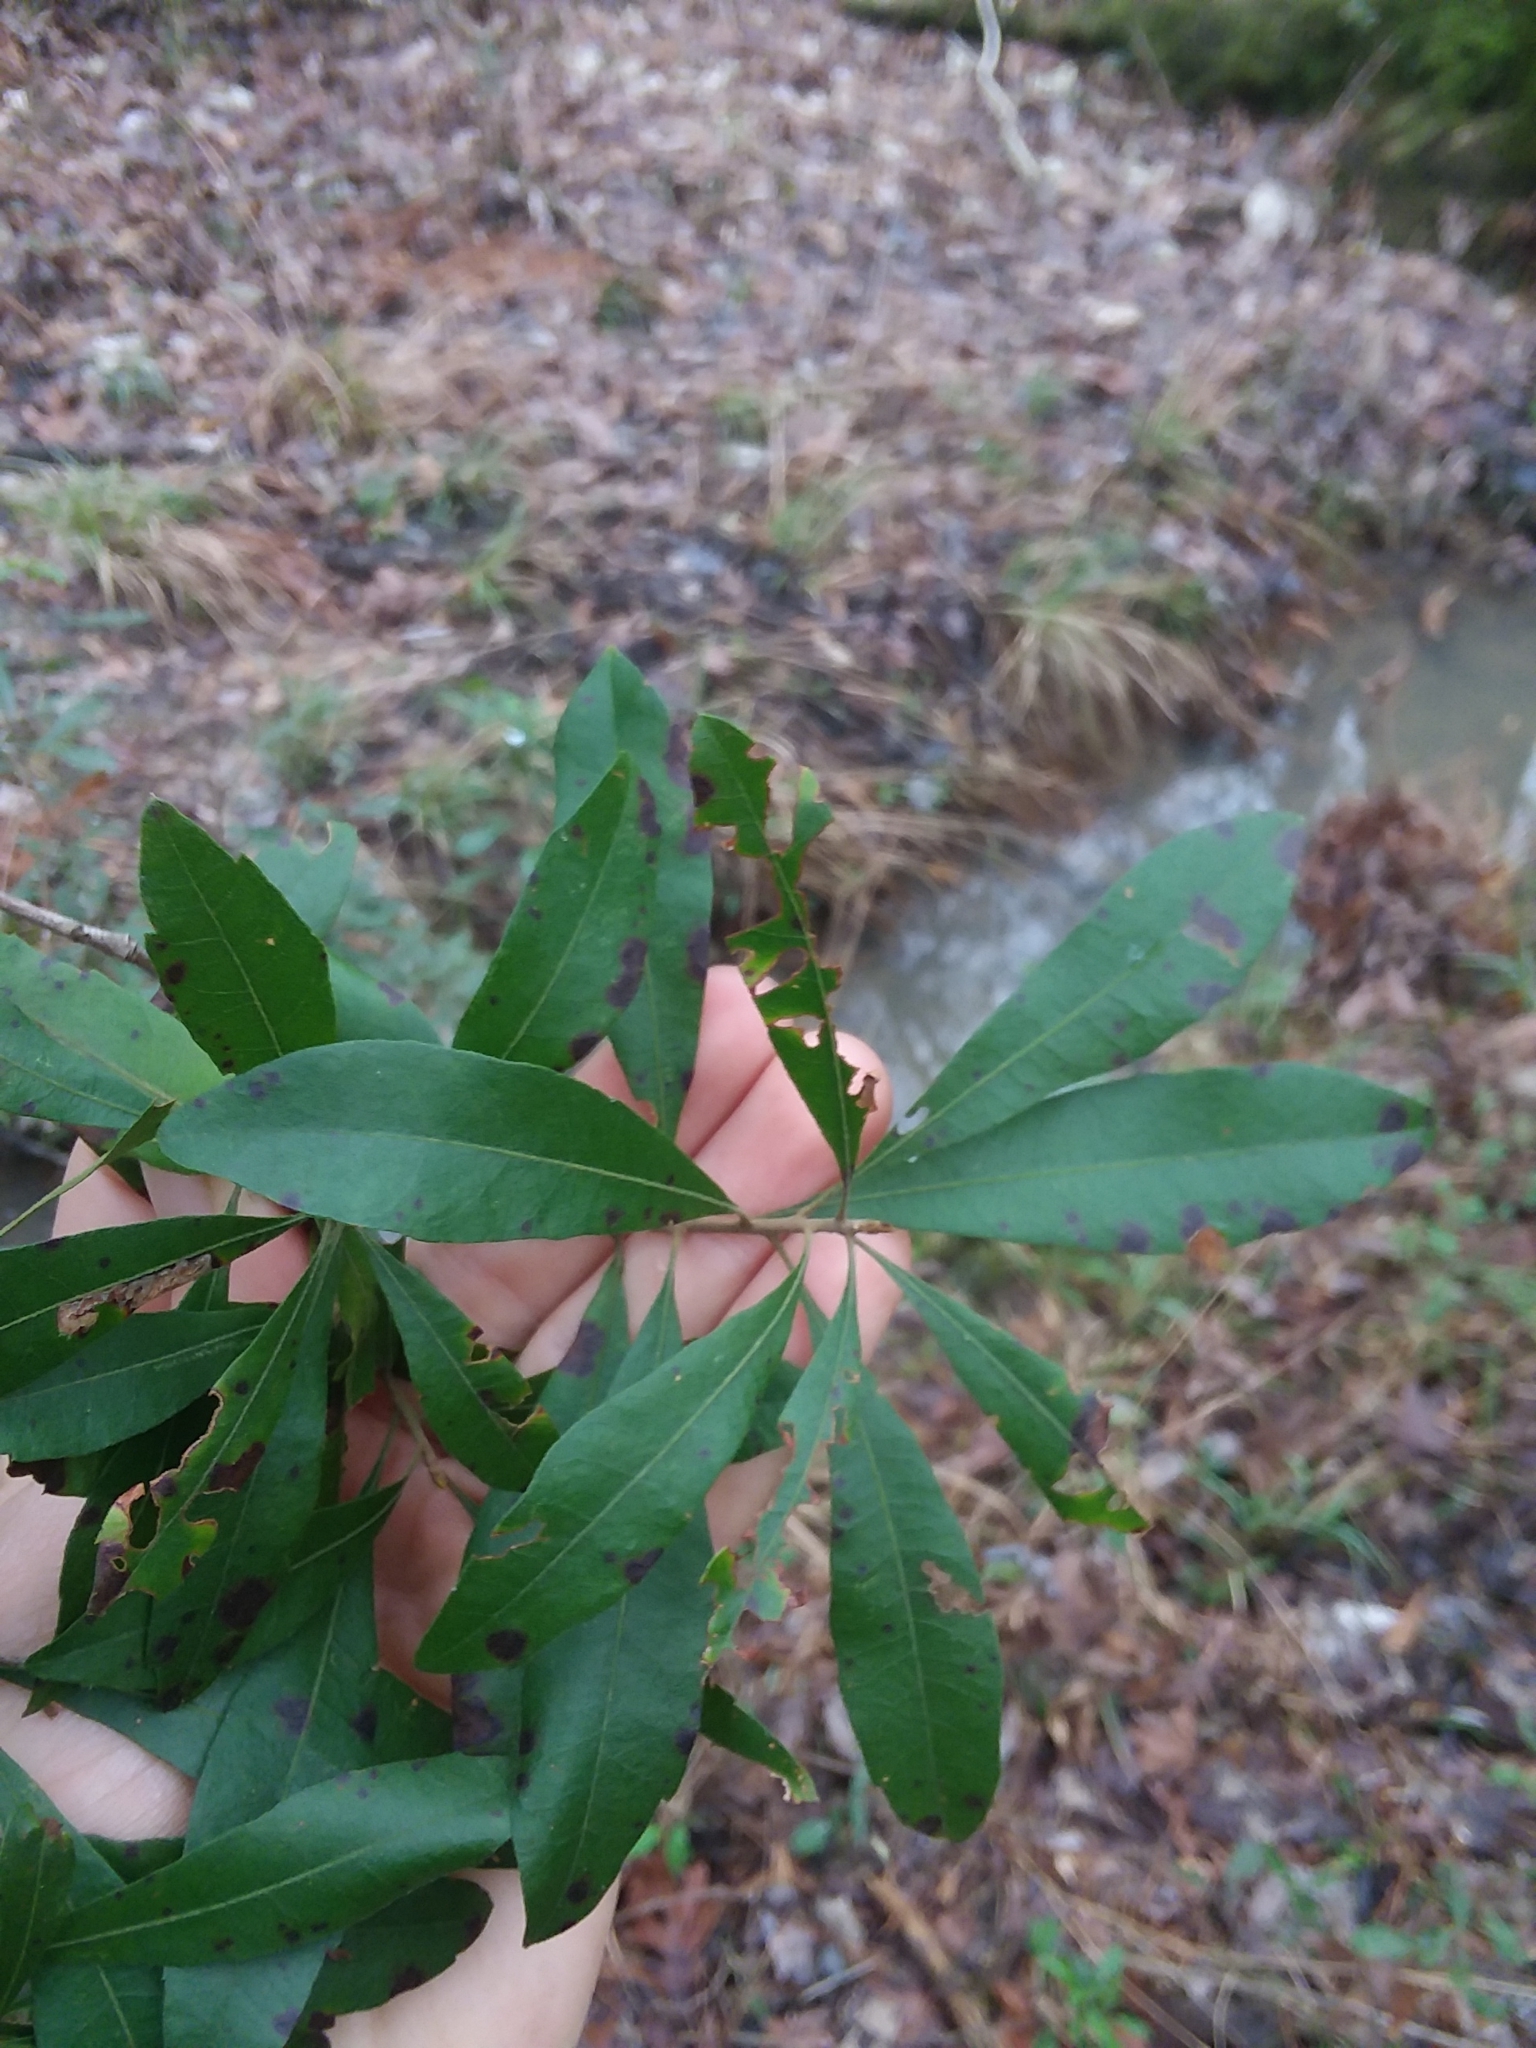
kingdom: Plantae
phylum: Tracheophyta
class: Magnoliopsida
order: Fagales
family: Myricaceae
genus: Morella
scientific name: Morella cerifera
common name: Wax myrtle
